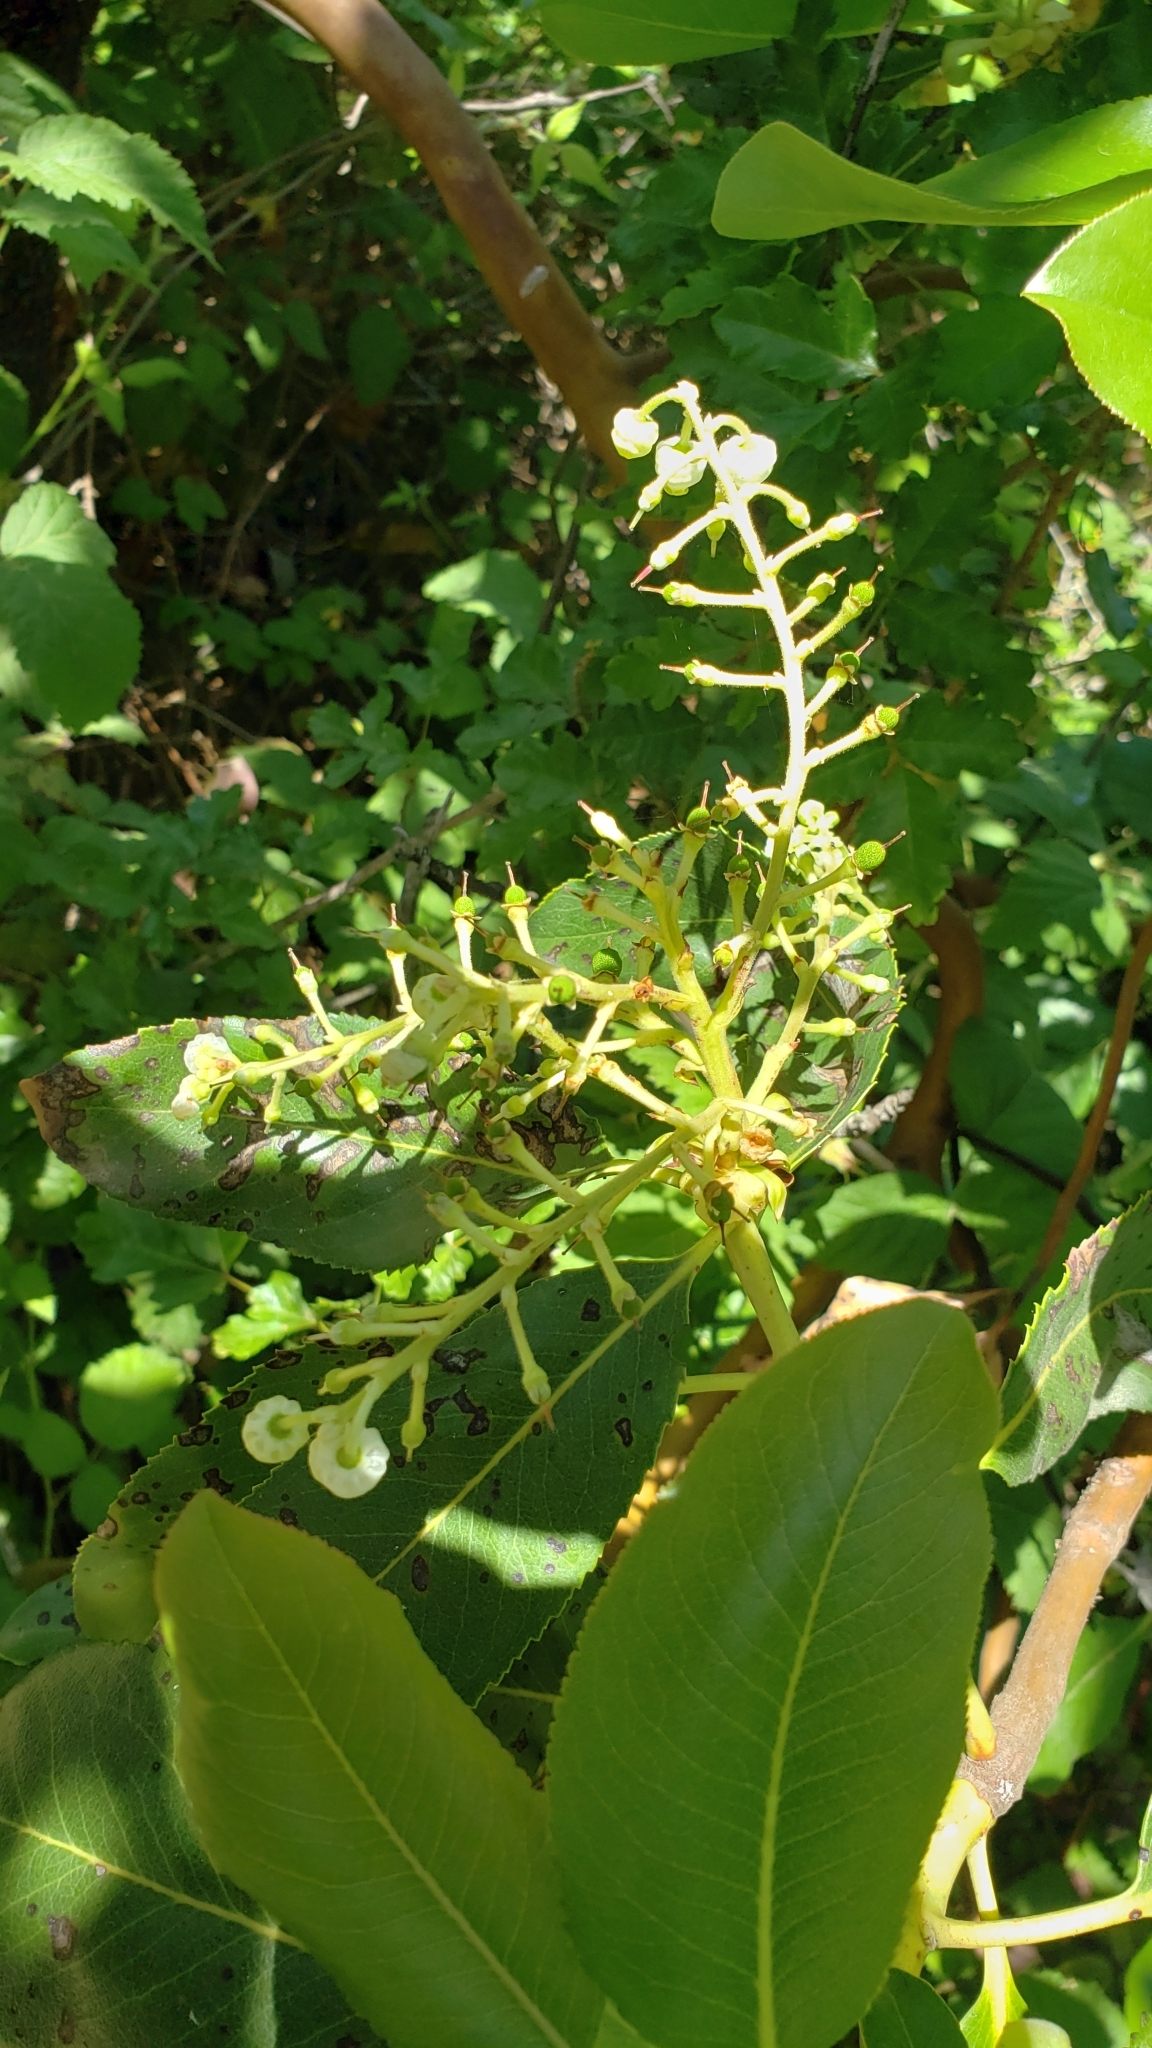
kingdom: Plantae
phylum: Tracheophyta
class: Magnoliopsida
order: Ericales
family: Ericaceae
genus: Arbutus
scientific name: Arbutus menziesii
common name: Pacific madrone
